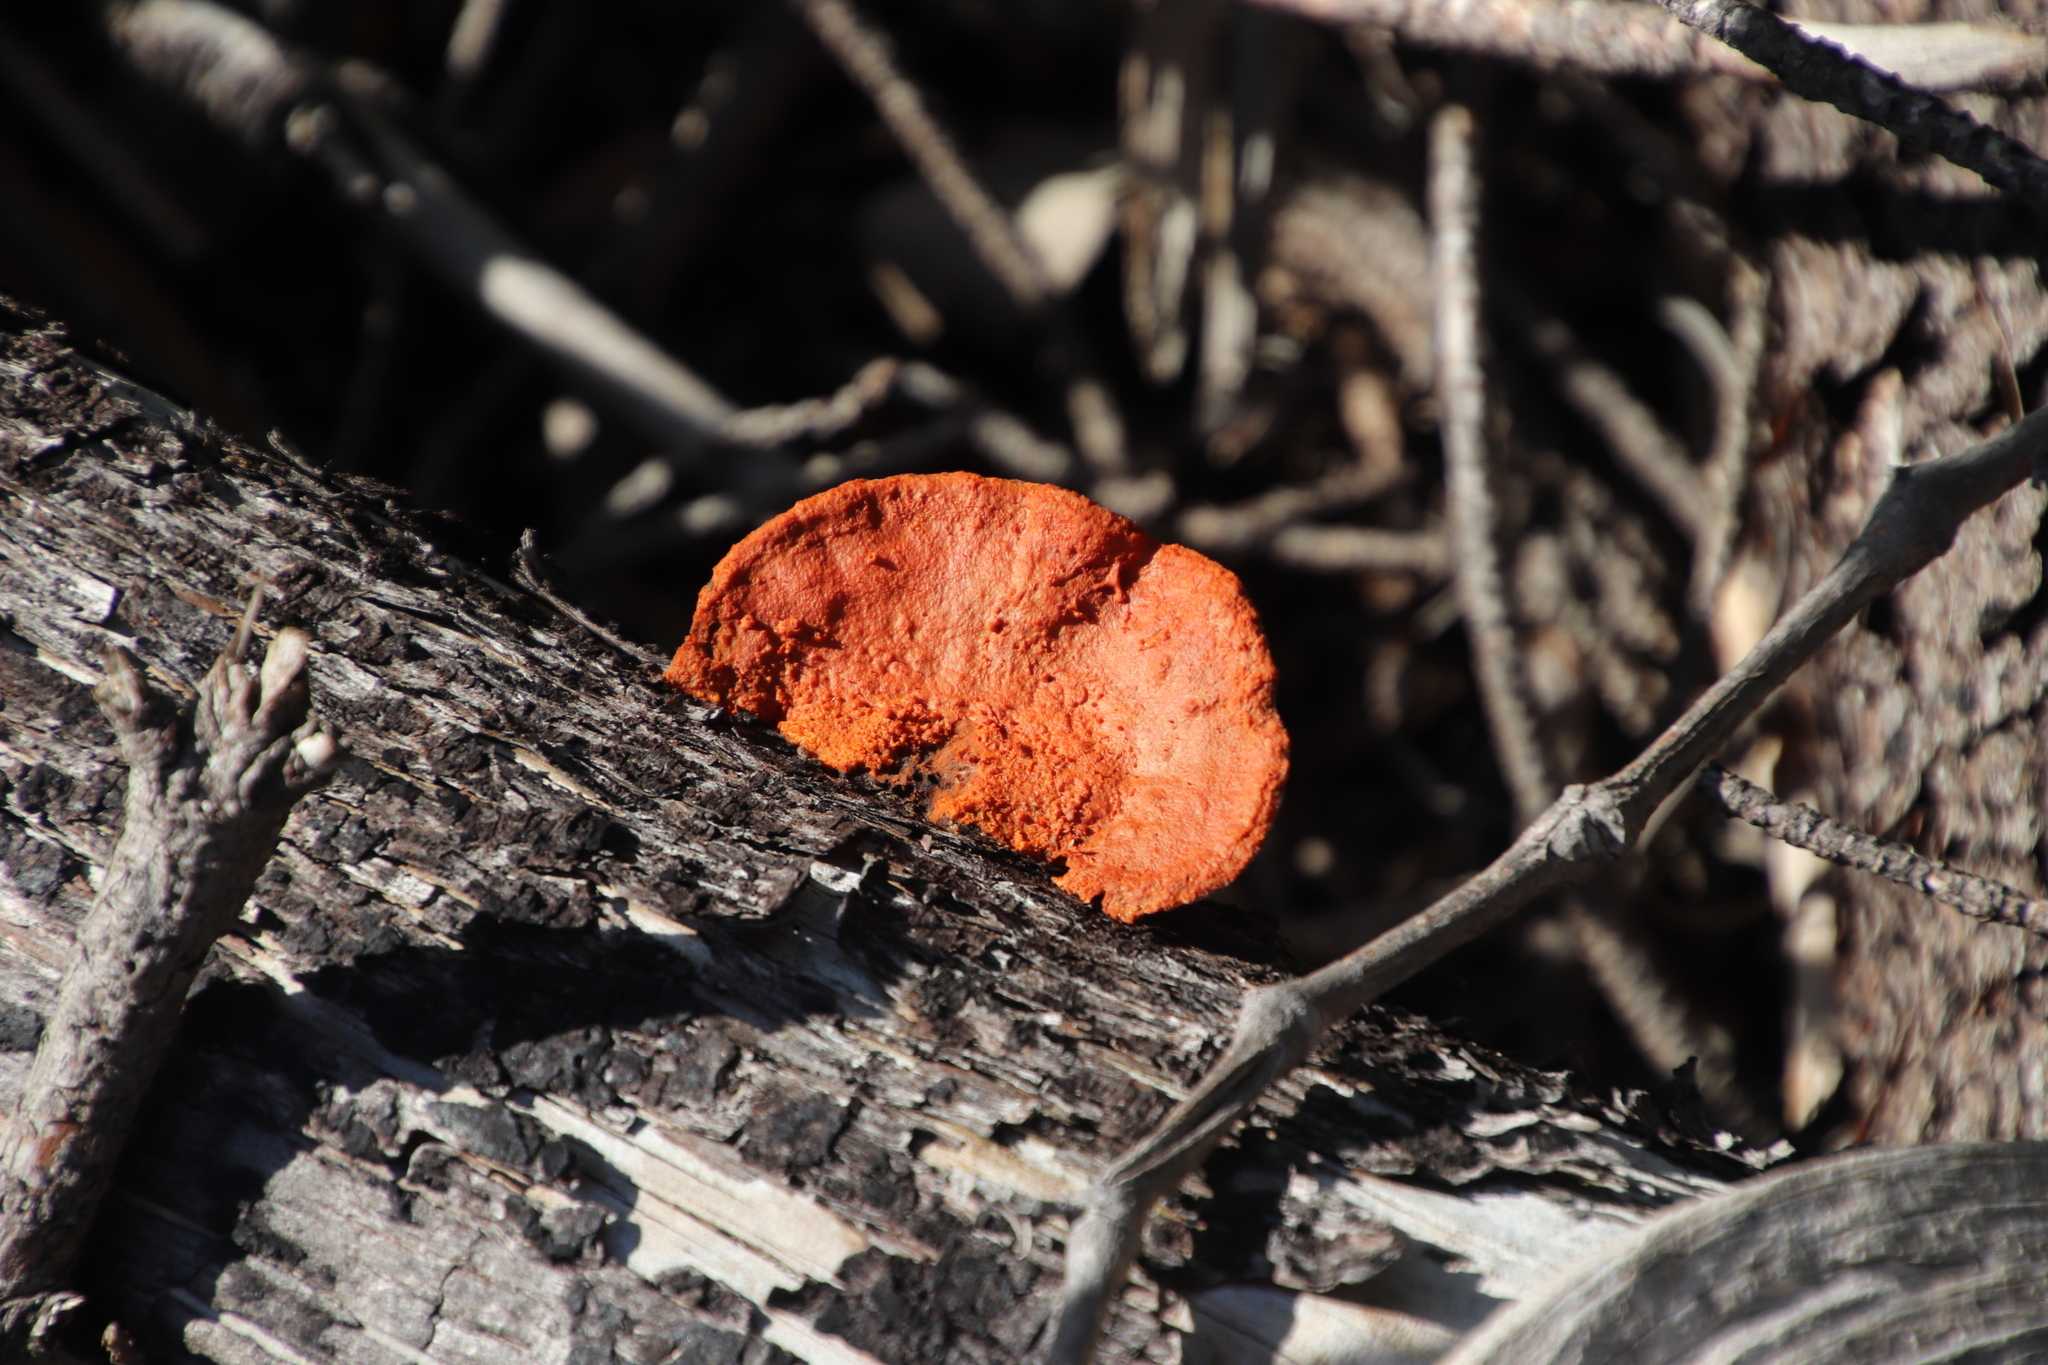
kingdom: Fungi
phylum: Basidiomycota
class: Agaricomycetes
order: Polyporales
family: Polyporaceae
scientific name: Polyporaceae
